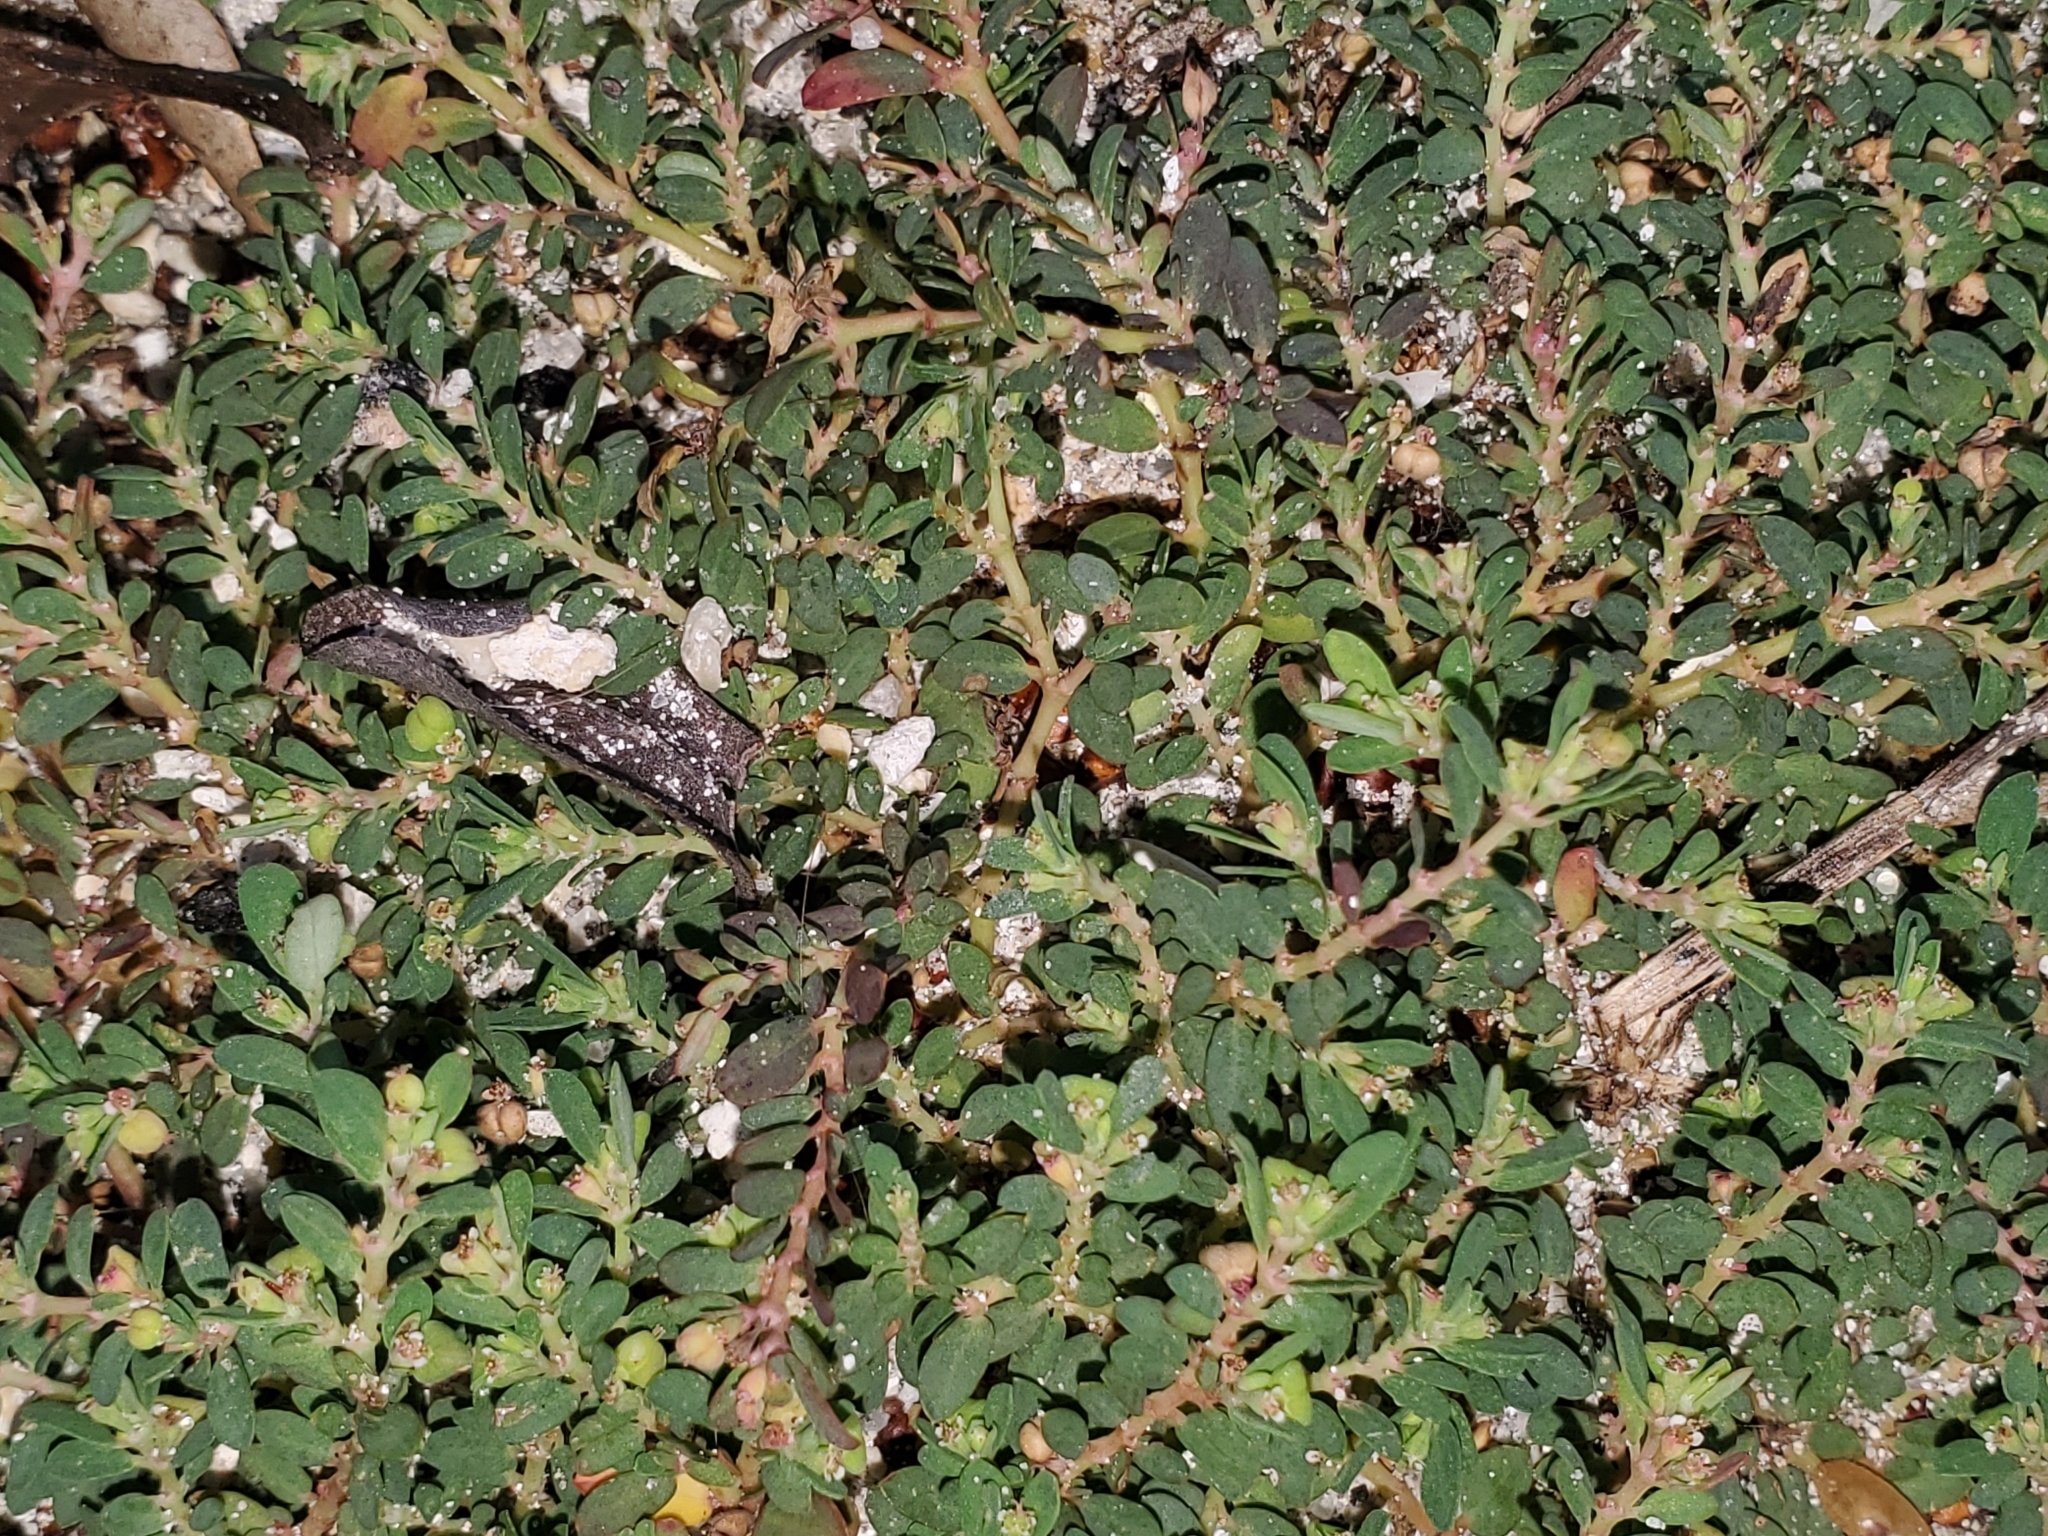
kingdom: Plantae
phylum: Tracheophyta
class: Magnoliopsida
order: Malpighiales
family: Euphorbiaceae
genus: Euphorbia
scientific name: Euphorbia blodgettii
